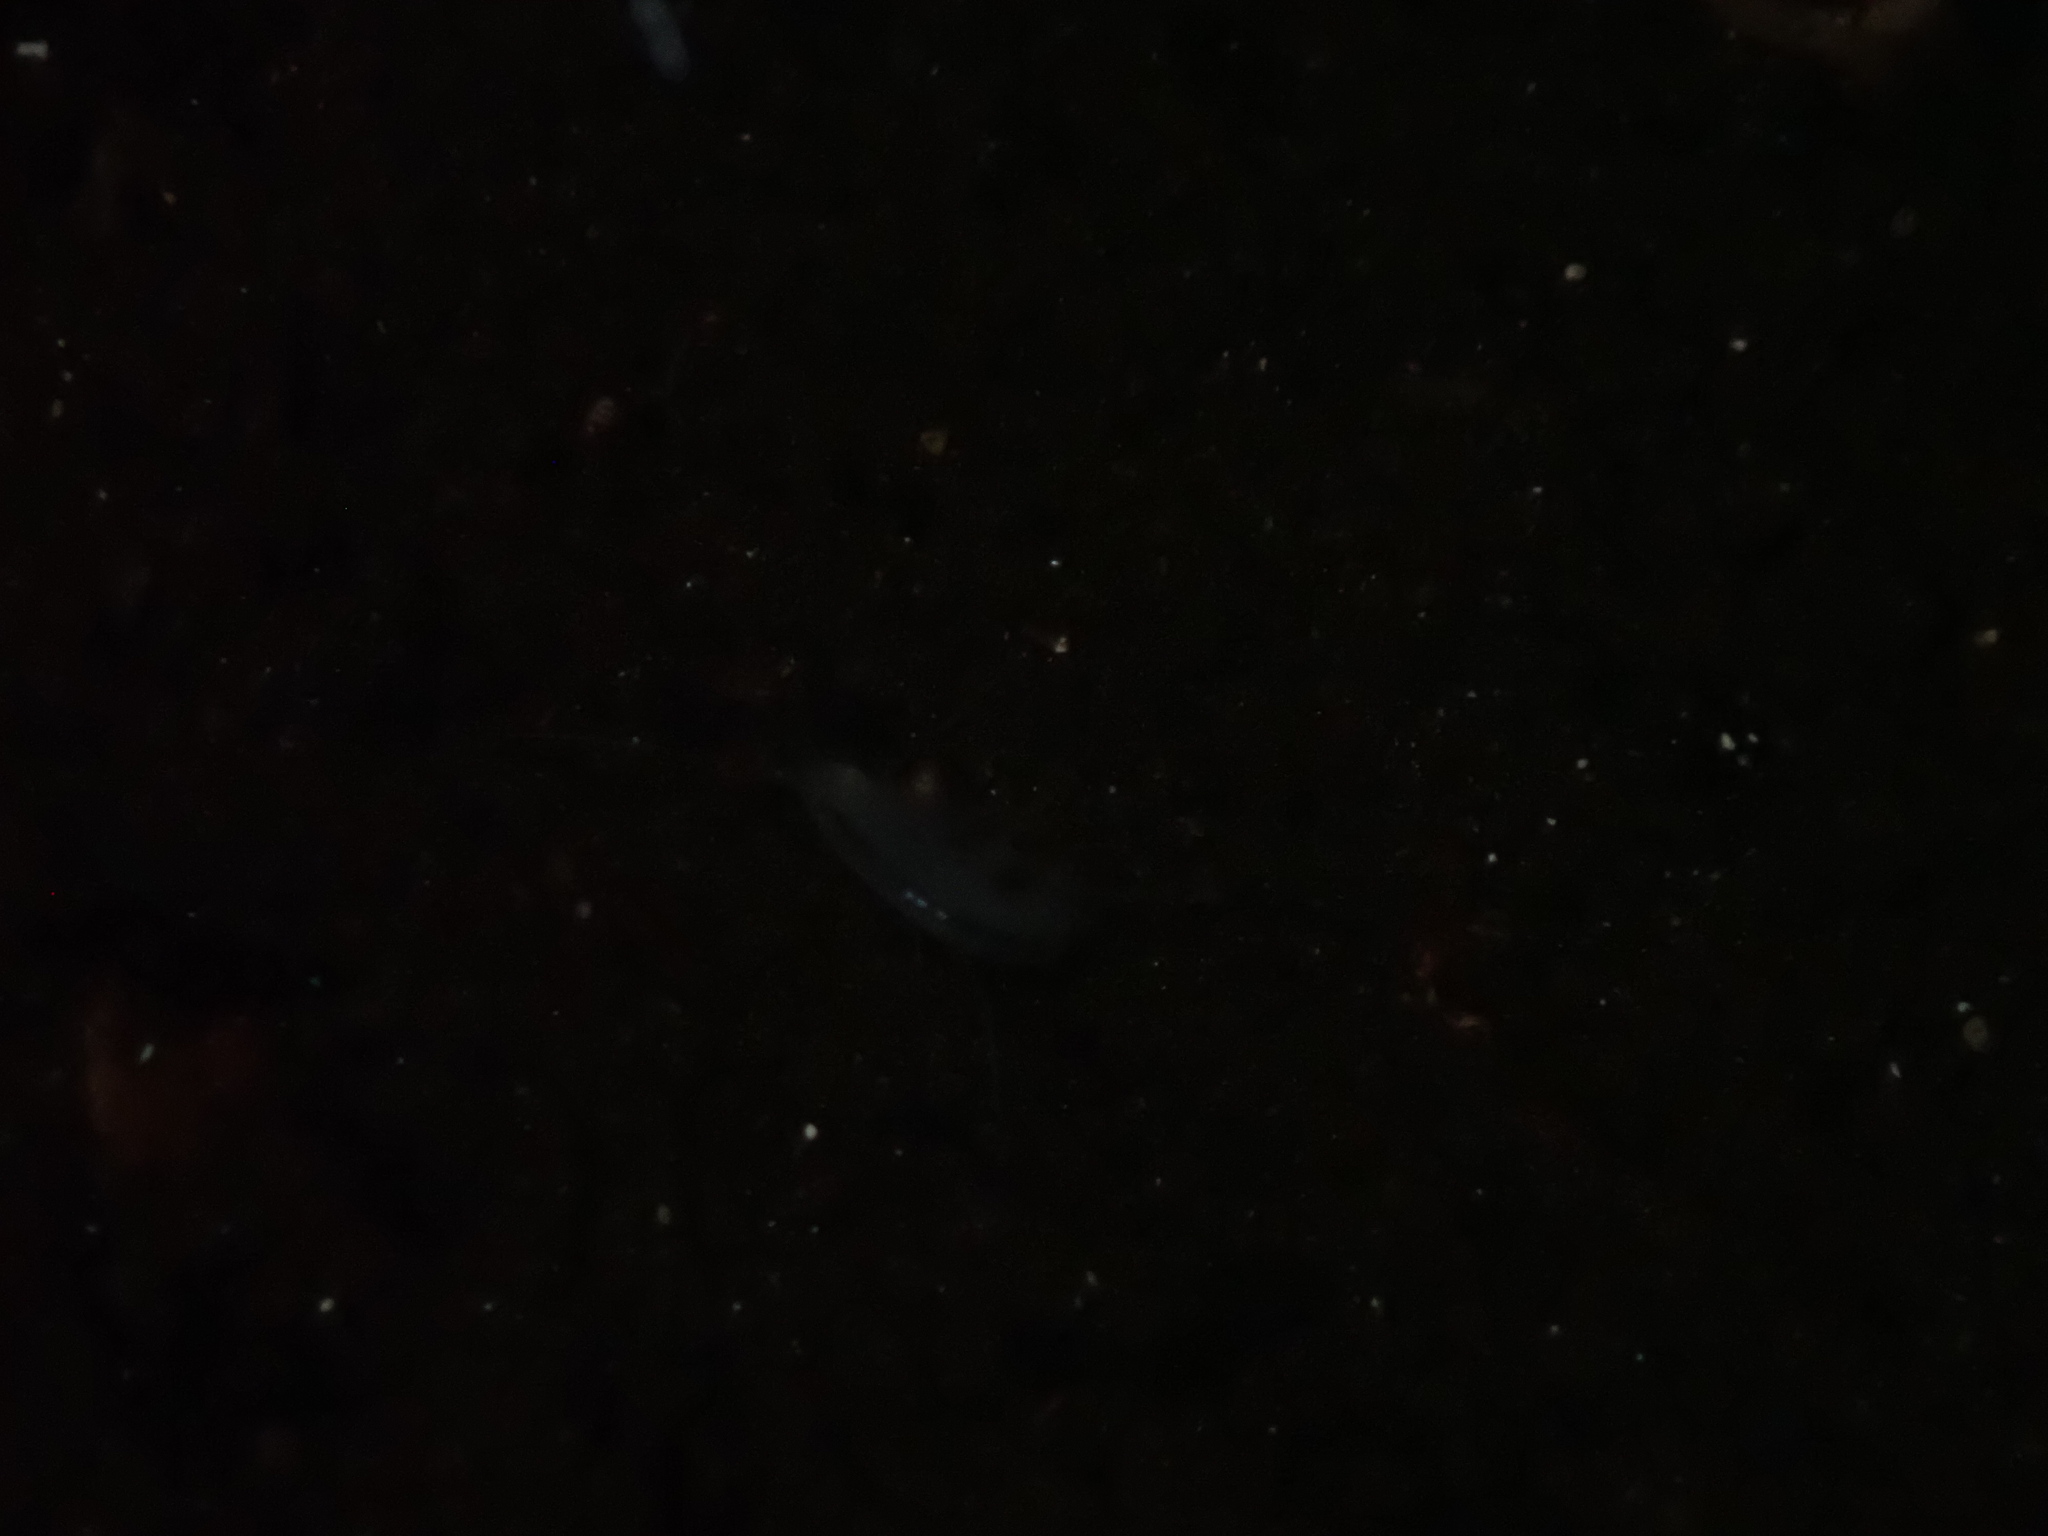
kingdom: Animalia
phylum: Arthropoda
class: Malacostraca
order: Amphipoda
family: Hadziidae
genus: Bahadzia
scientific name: Bahadzia caymanensis
